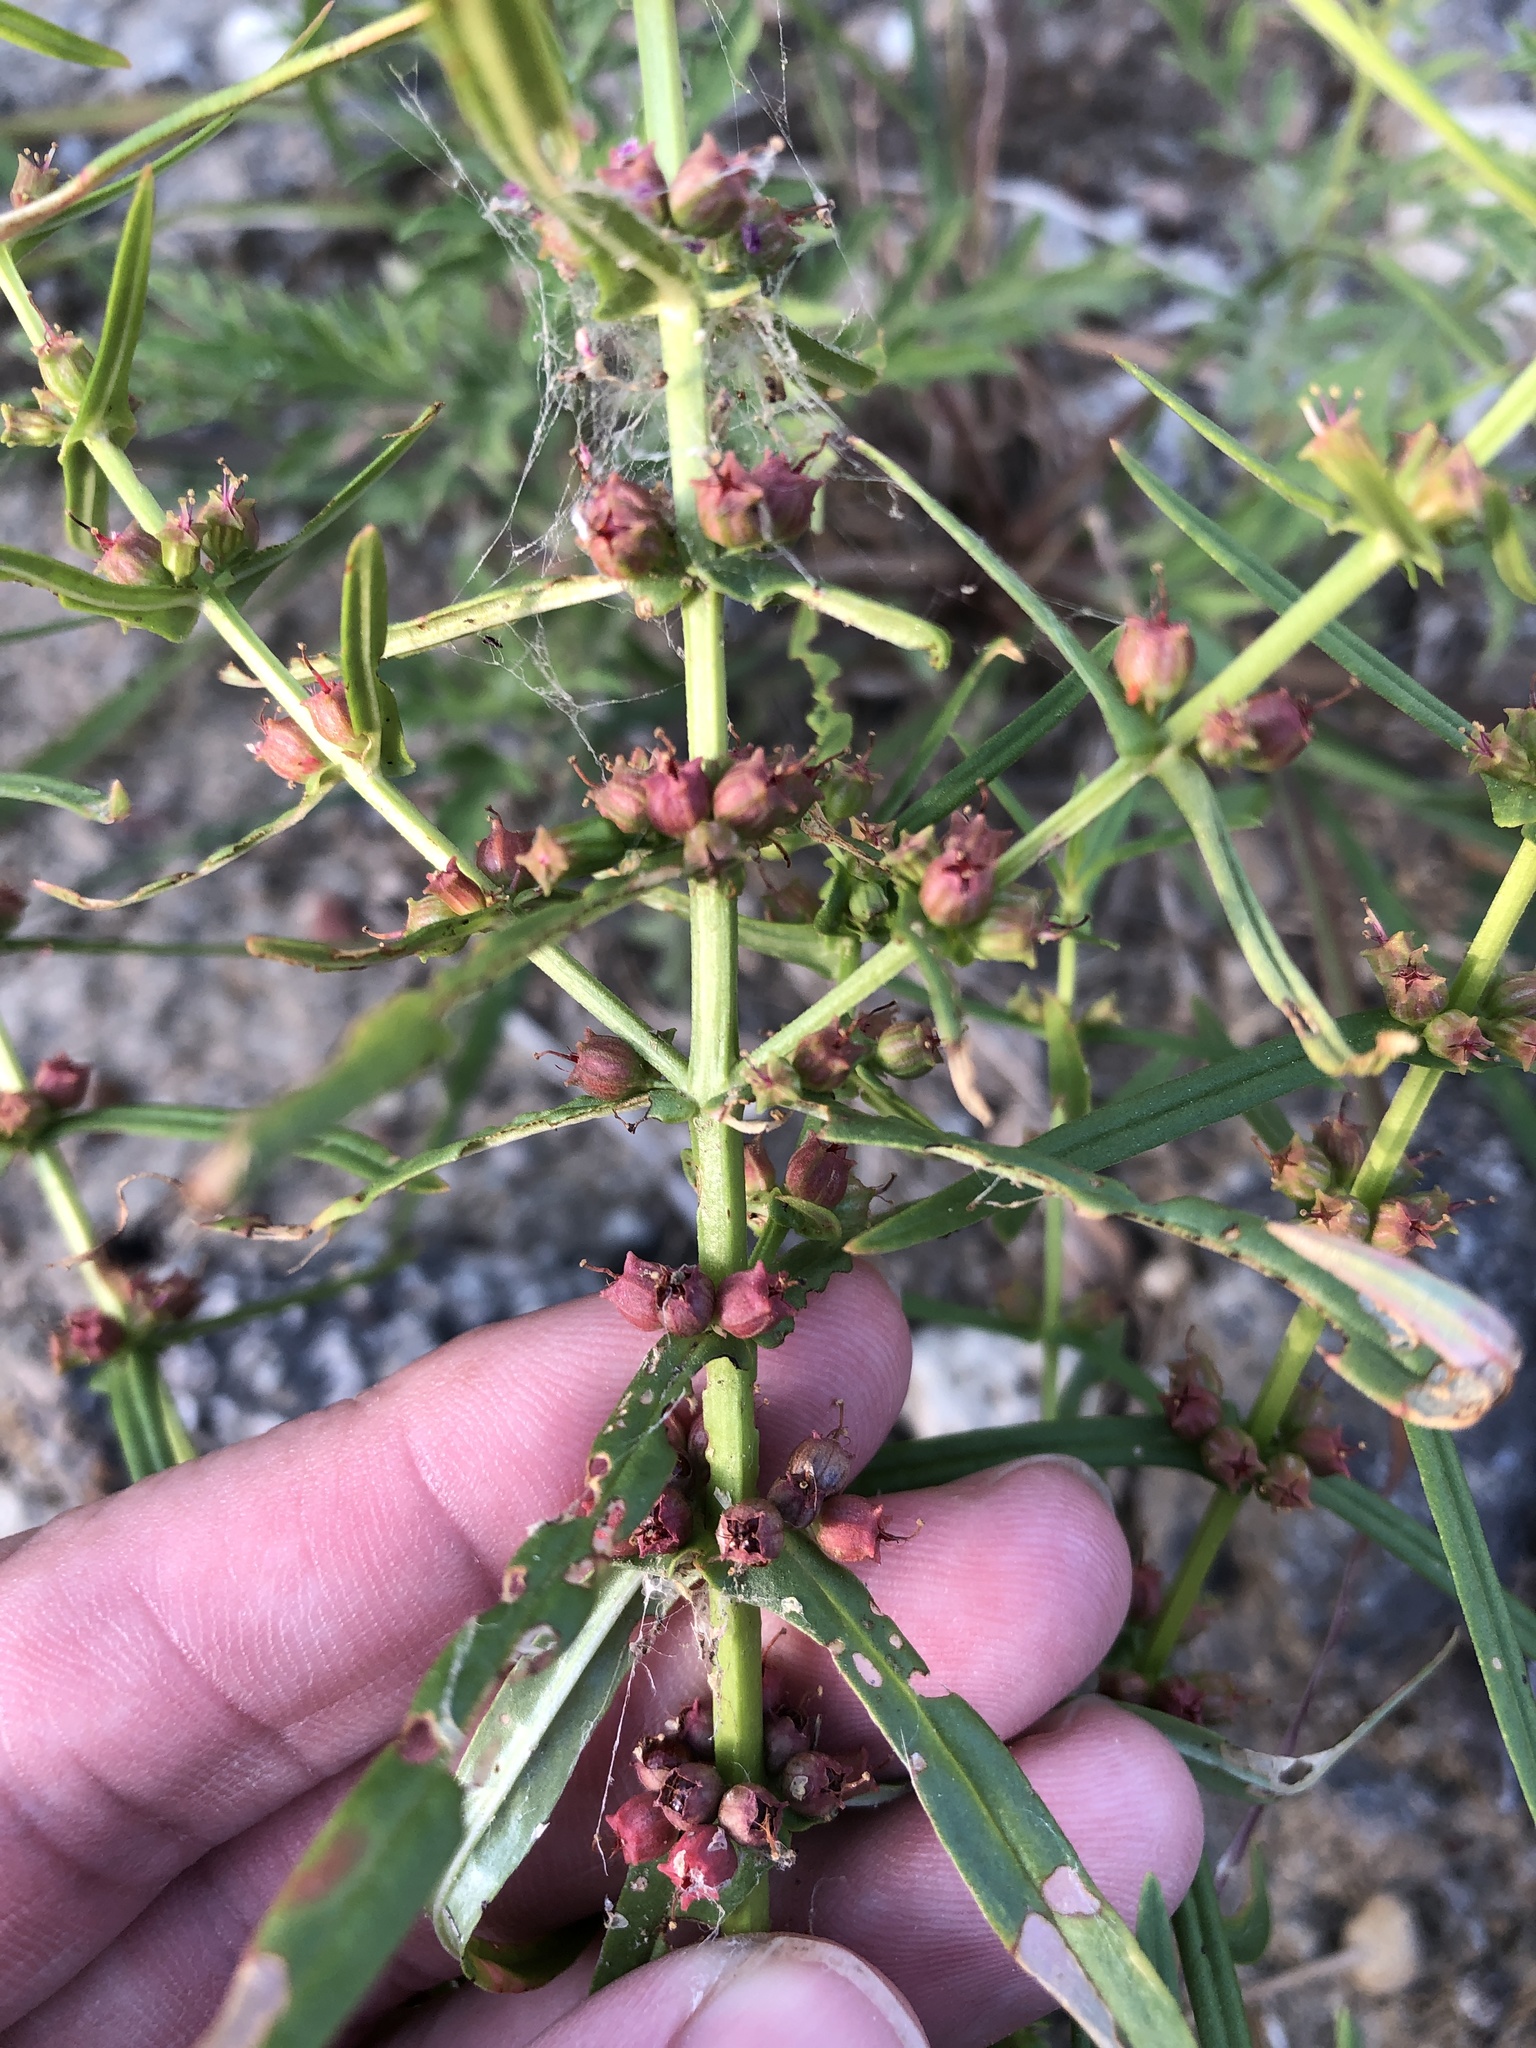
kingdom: Plantae
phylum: Tracheophyta
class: Magnoliopsida
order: Myrtales
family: Lythraceae
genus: Ammannia
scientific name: Ammannia coccinea
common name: Valley redstem
